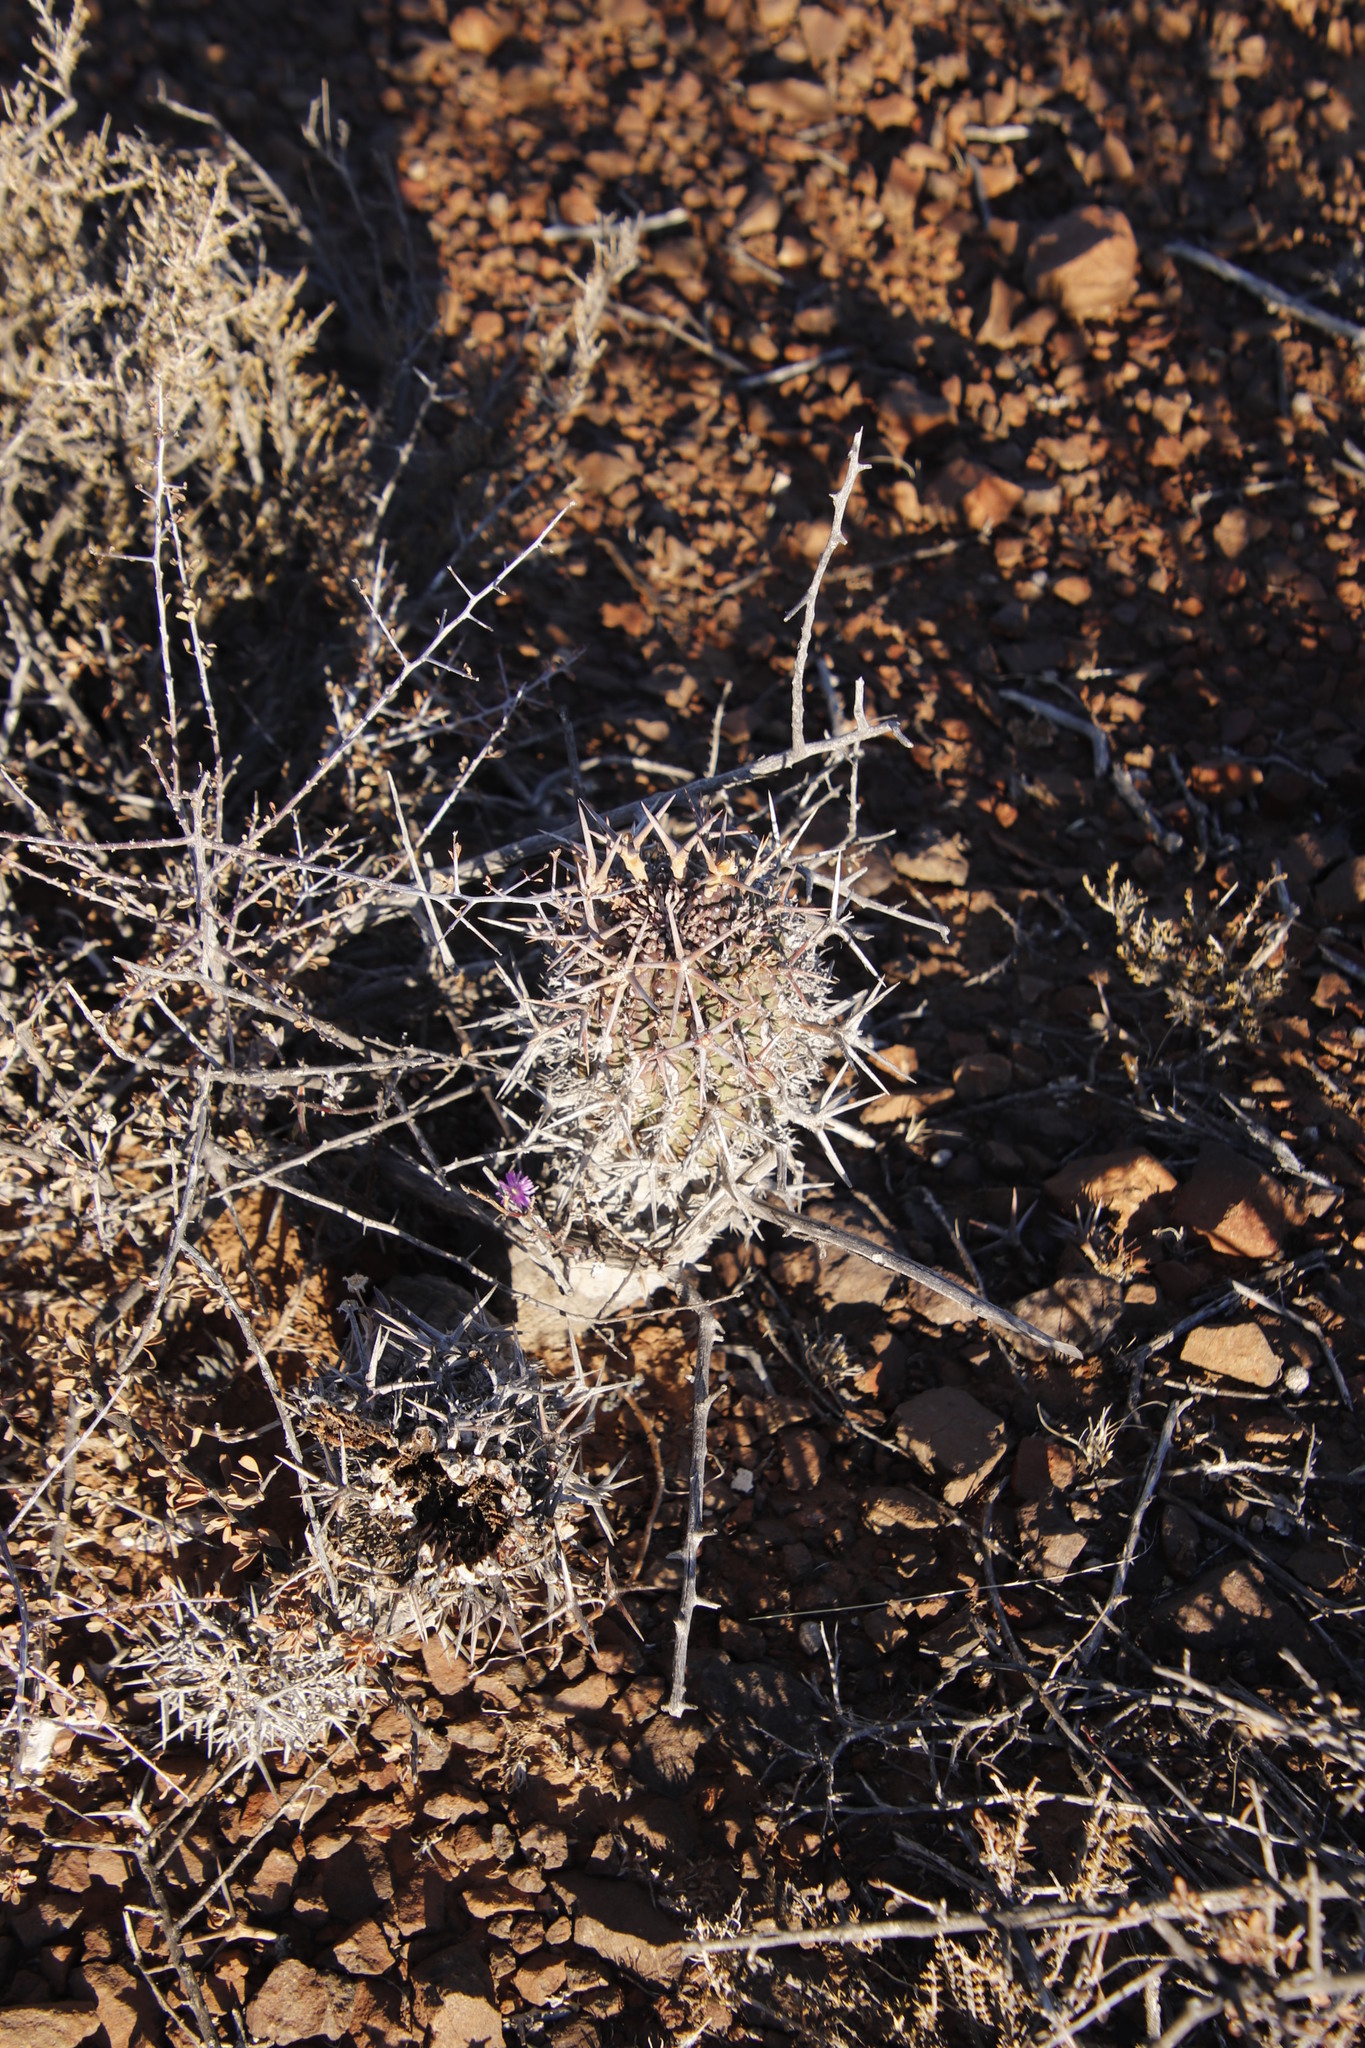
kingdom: Plantae
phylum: Tracheophyta
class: Magnoliopsida
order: Malpighiales
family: Euphorbiaceae
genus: Euphorbia
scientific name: Euphorbia stellispina
